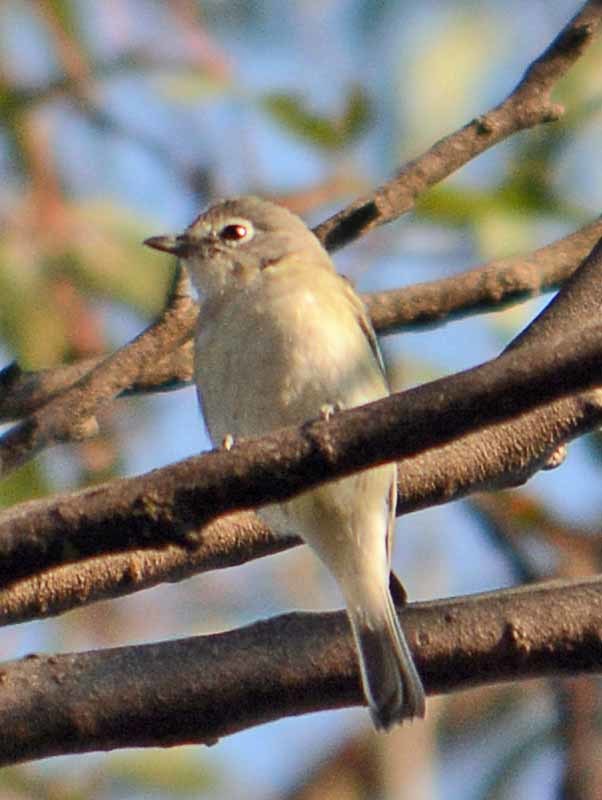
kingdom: Animalia
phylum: Chordata
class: Aves
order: Passeriformes
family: Vireonidae
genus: Vireo
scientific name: Vireo cassinii
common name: Cassin's vireo
